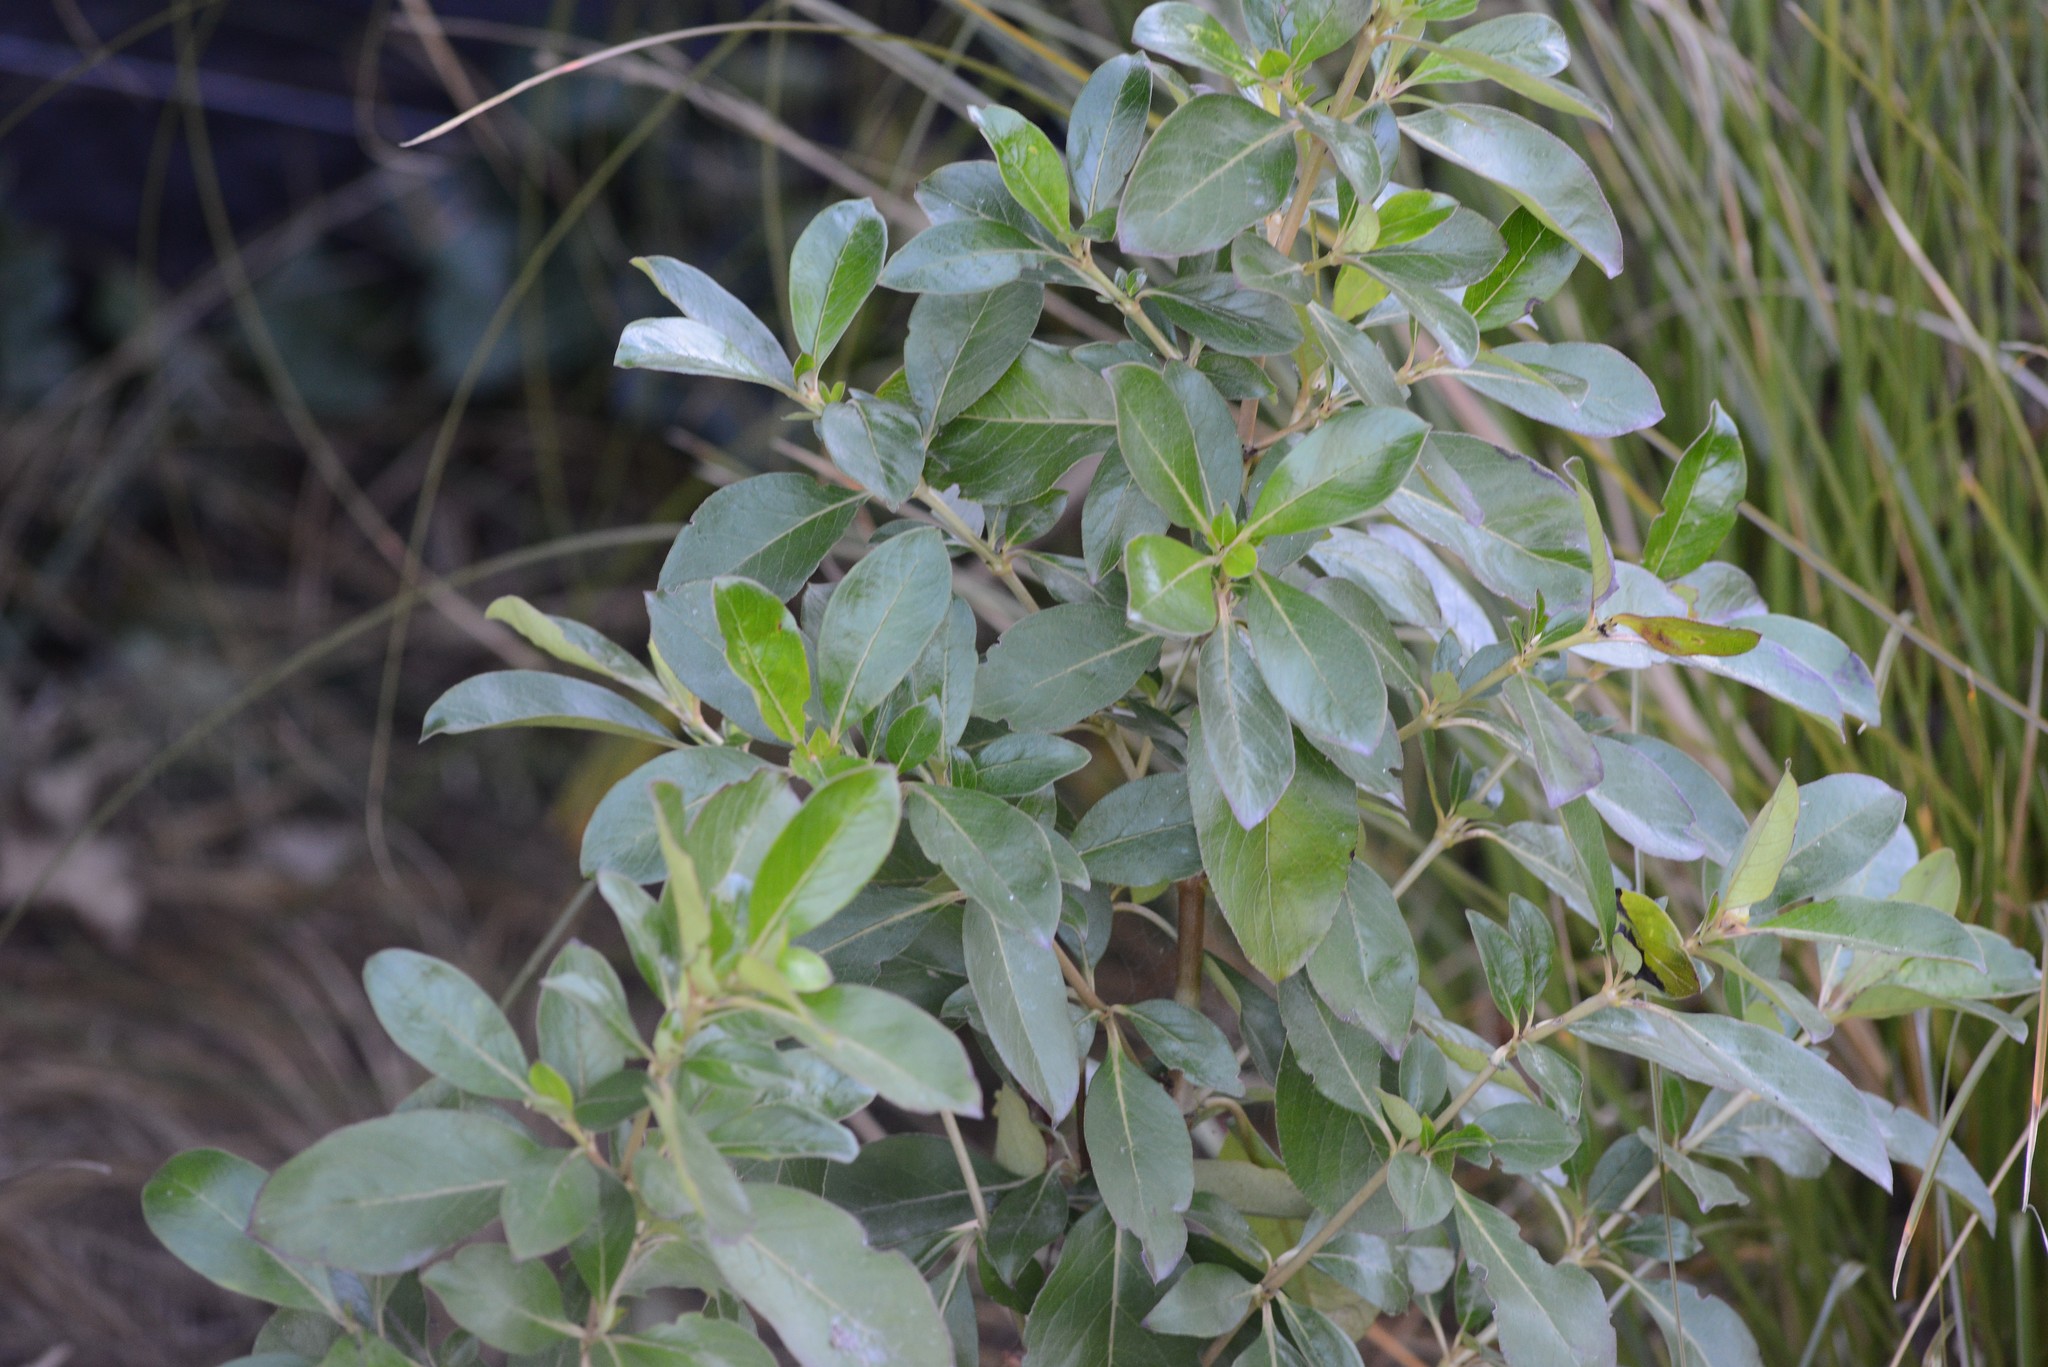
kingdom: Plantae
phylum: Tracheophyta
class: Magnoliopsida
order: Gentianales
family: Rubiaceae
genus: Coprosma
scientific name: Coprosma robusta
